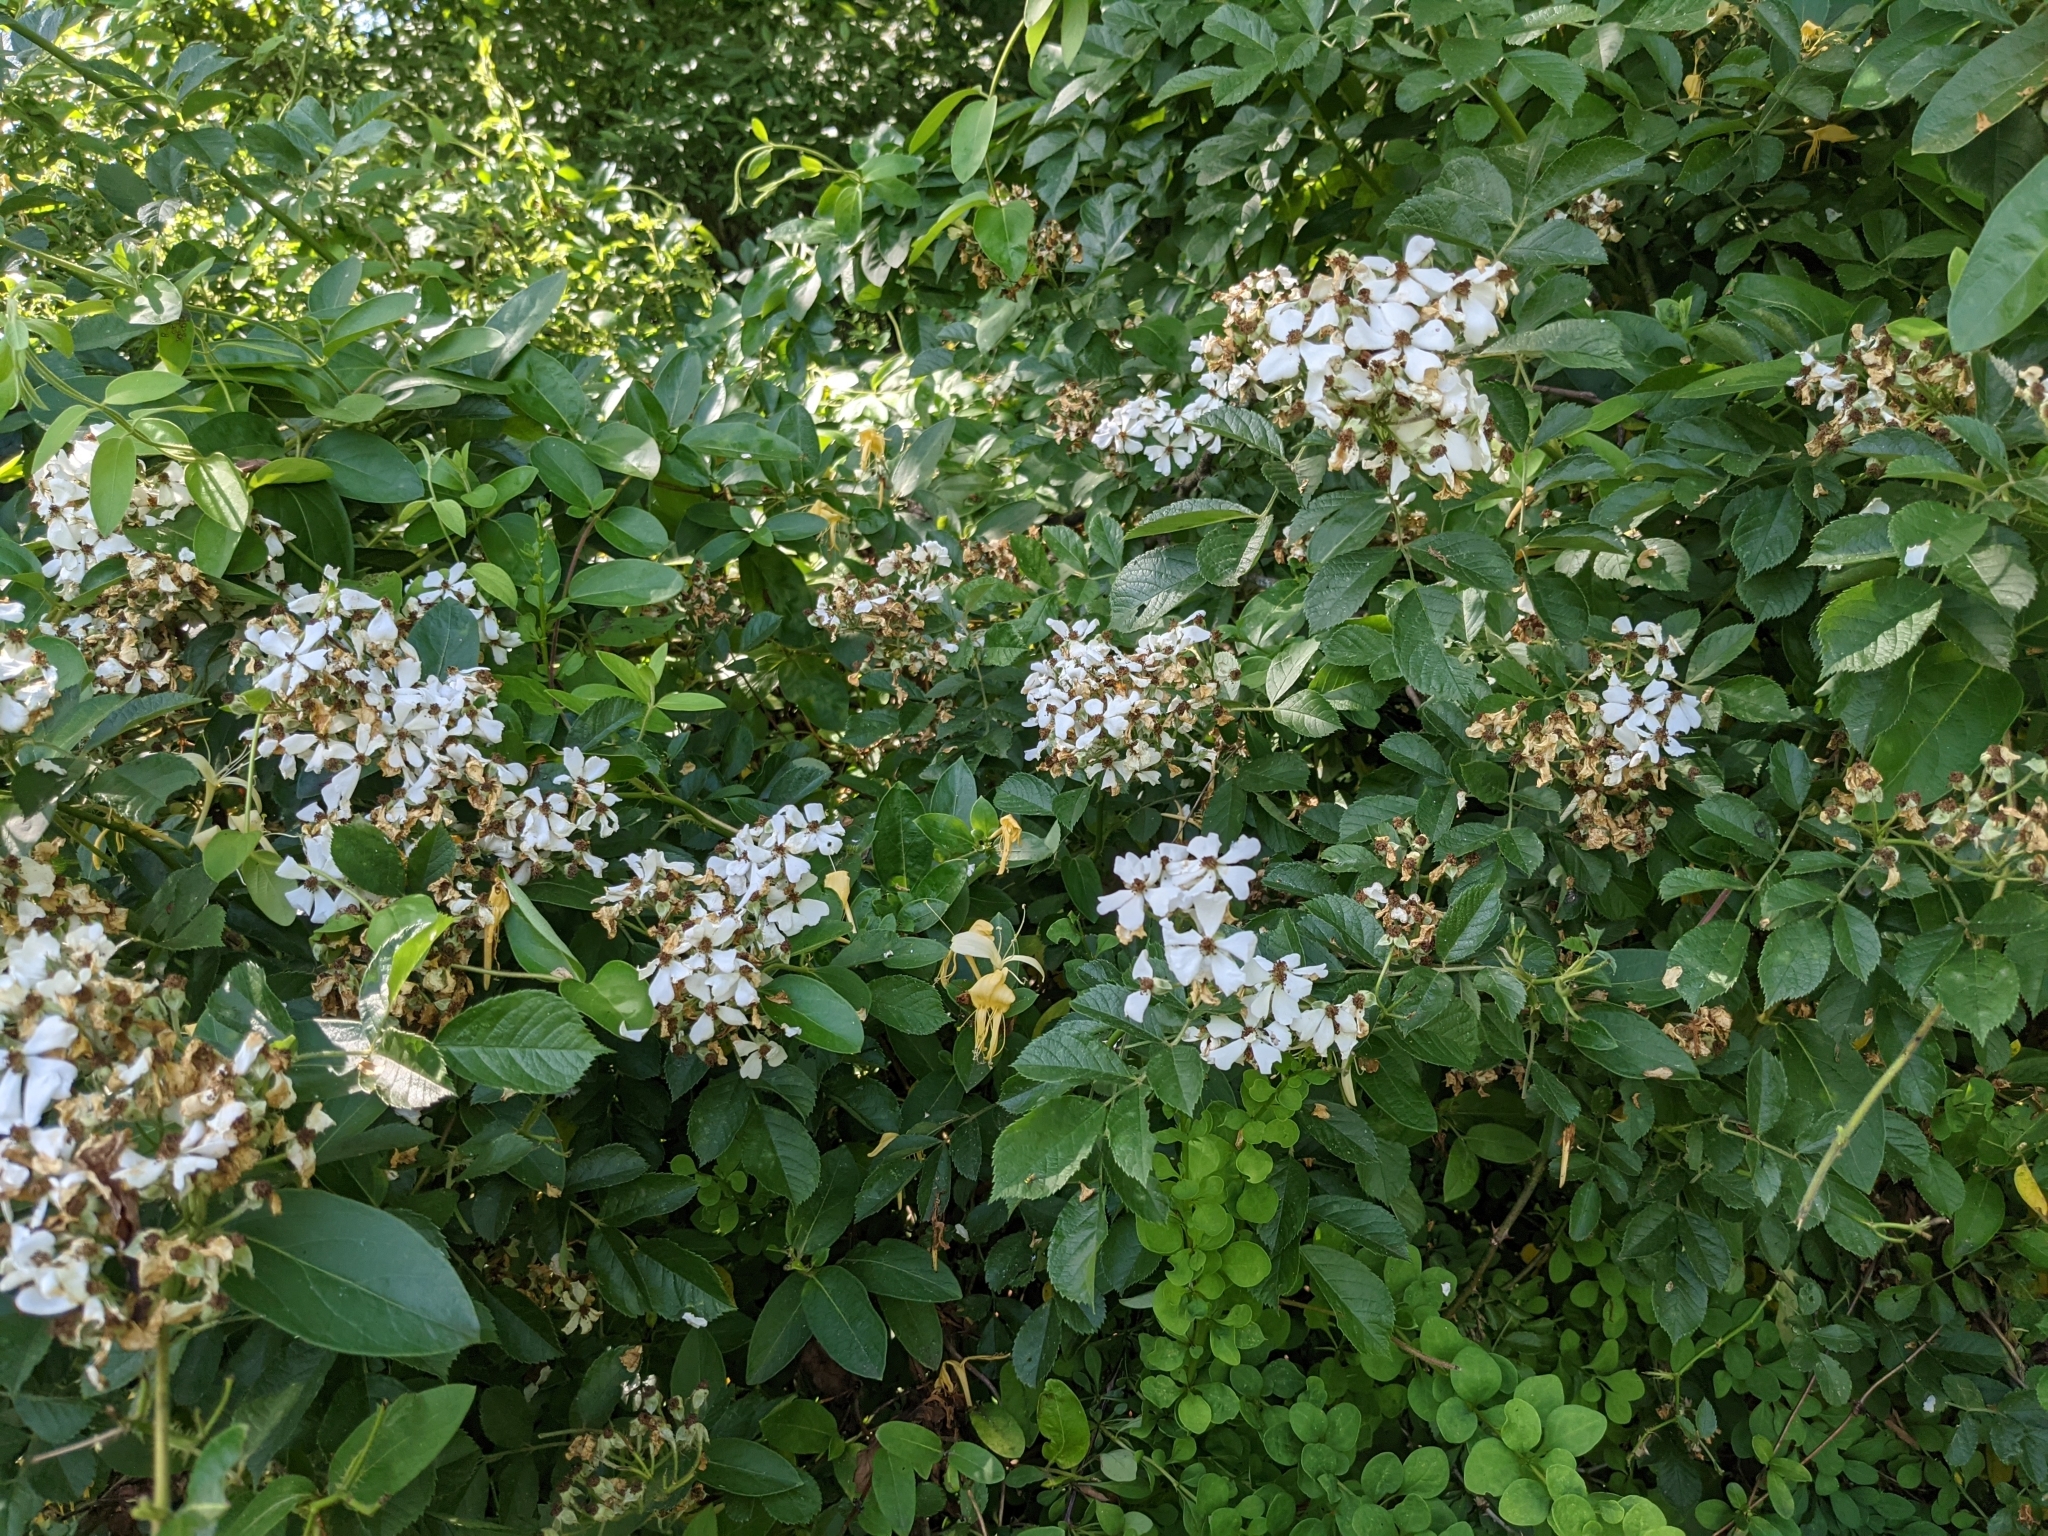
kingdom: Plantae
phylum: Tracheophyta
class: Magnoliopsida
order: Rosales
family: Rosaceae
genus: Rosa
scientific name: Rosa multiflora
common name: Multiflora rose
